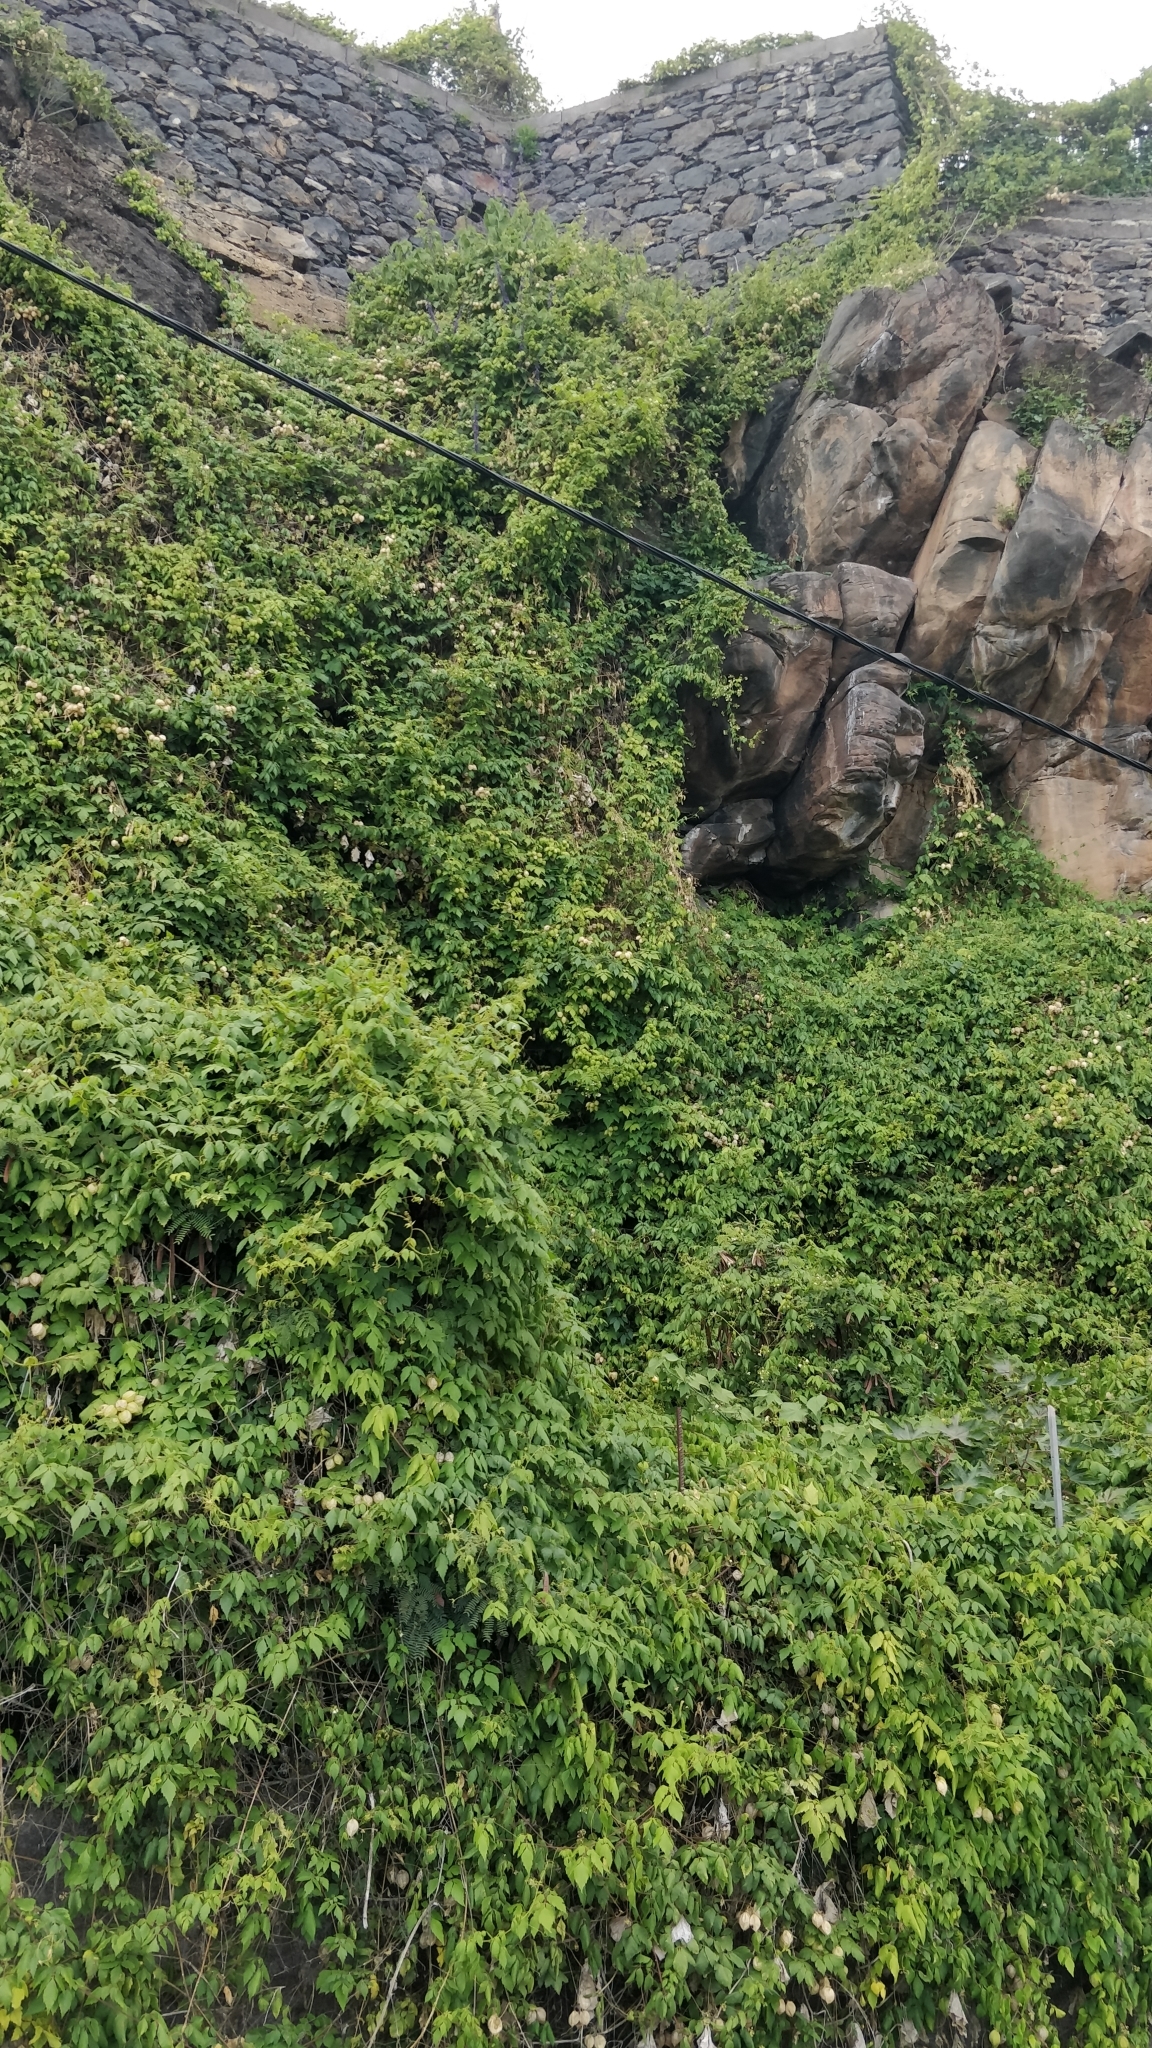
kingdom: Plantae
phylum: Tracheophyta
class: Magnoliopsida
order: Sapindales
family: Sapindaceae
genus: Cardiospermum
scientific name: Cardiospermum grandiflorum
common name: Balloon vine
